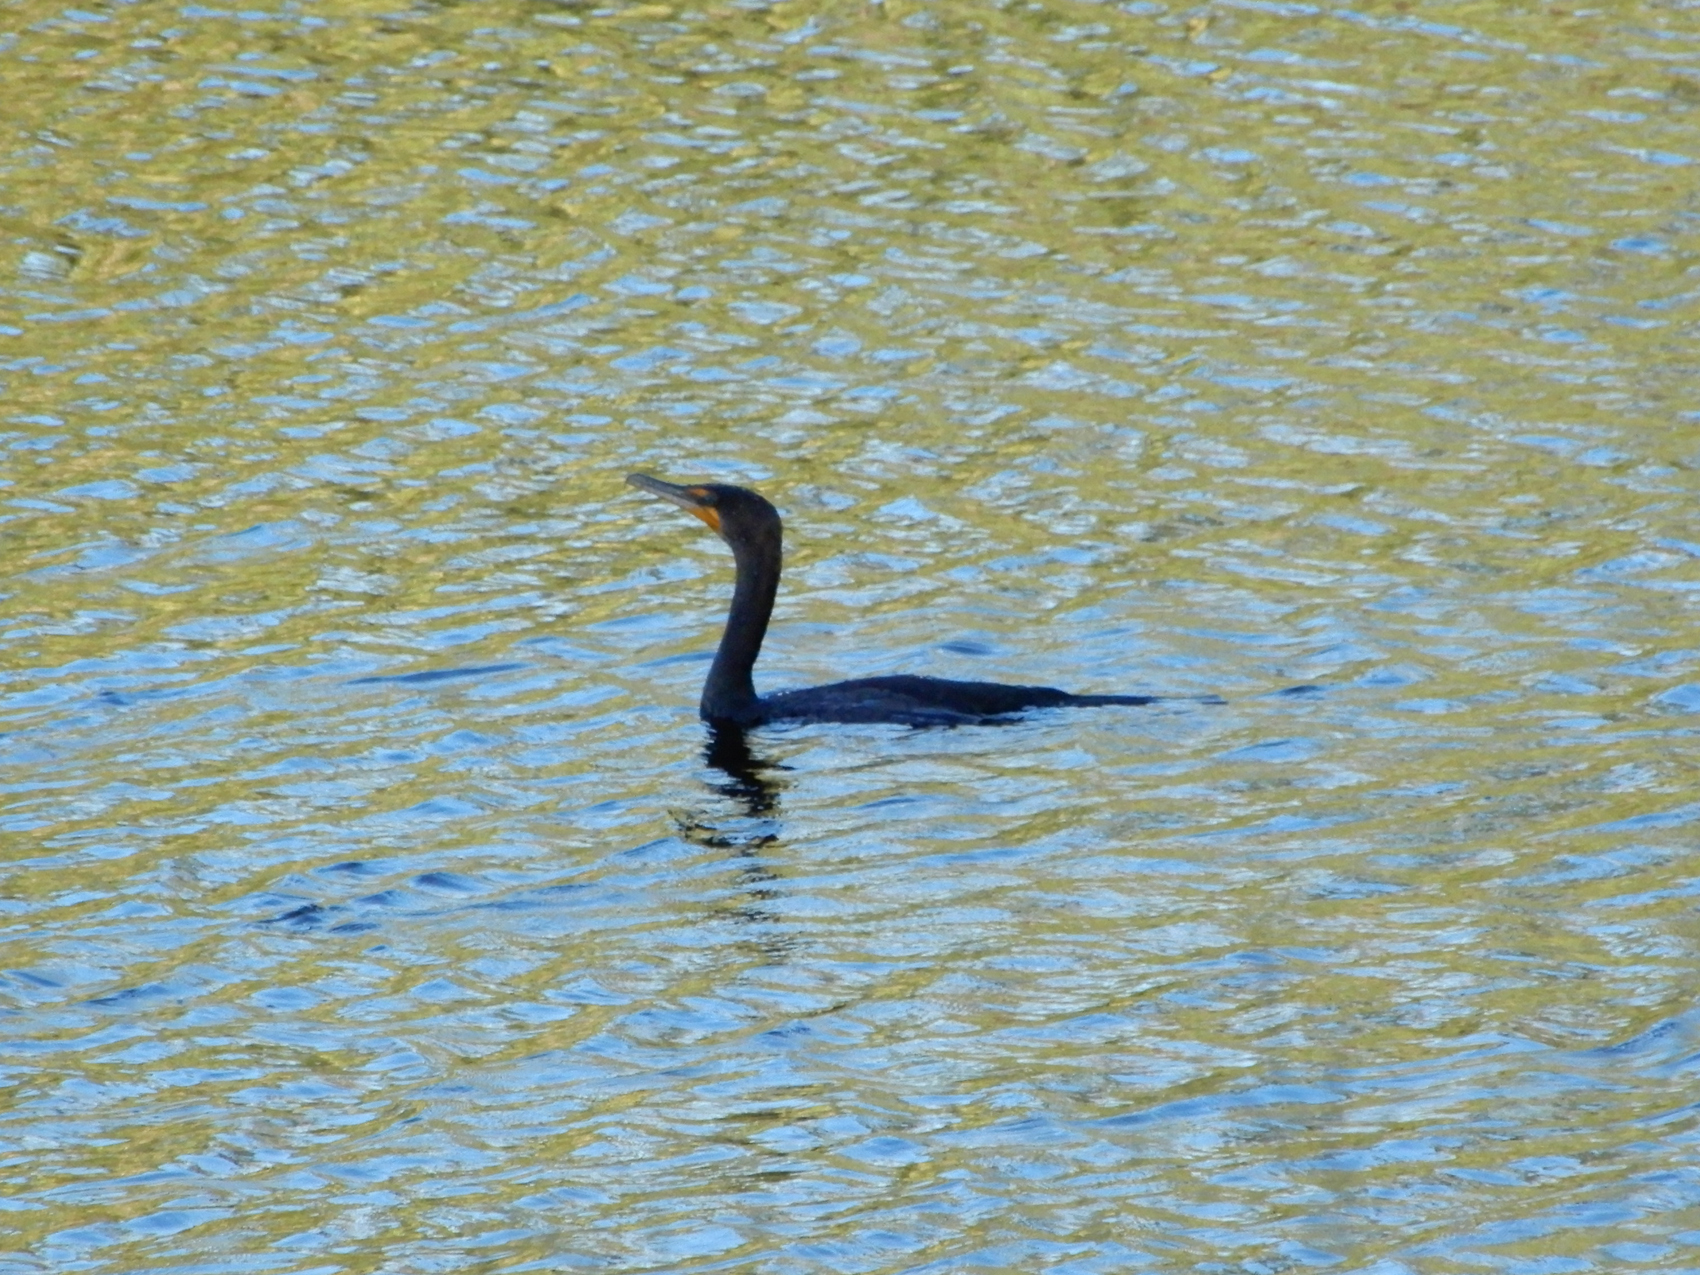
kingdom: Animalia
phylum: Chordata
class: Aves
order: Suliformes
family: Phalacrocoracidae
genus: Phalacrocorax
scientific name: Phalacrocorax auritus
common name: Double-crested cormorant
